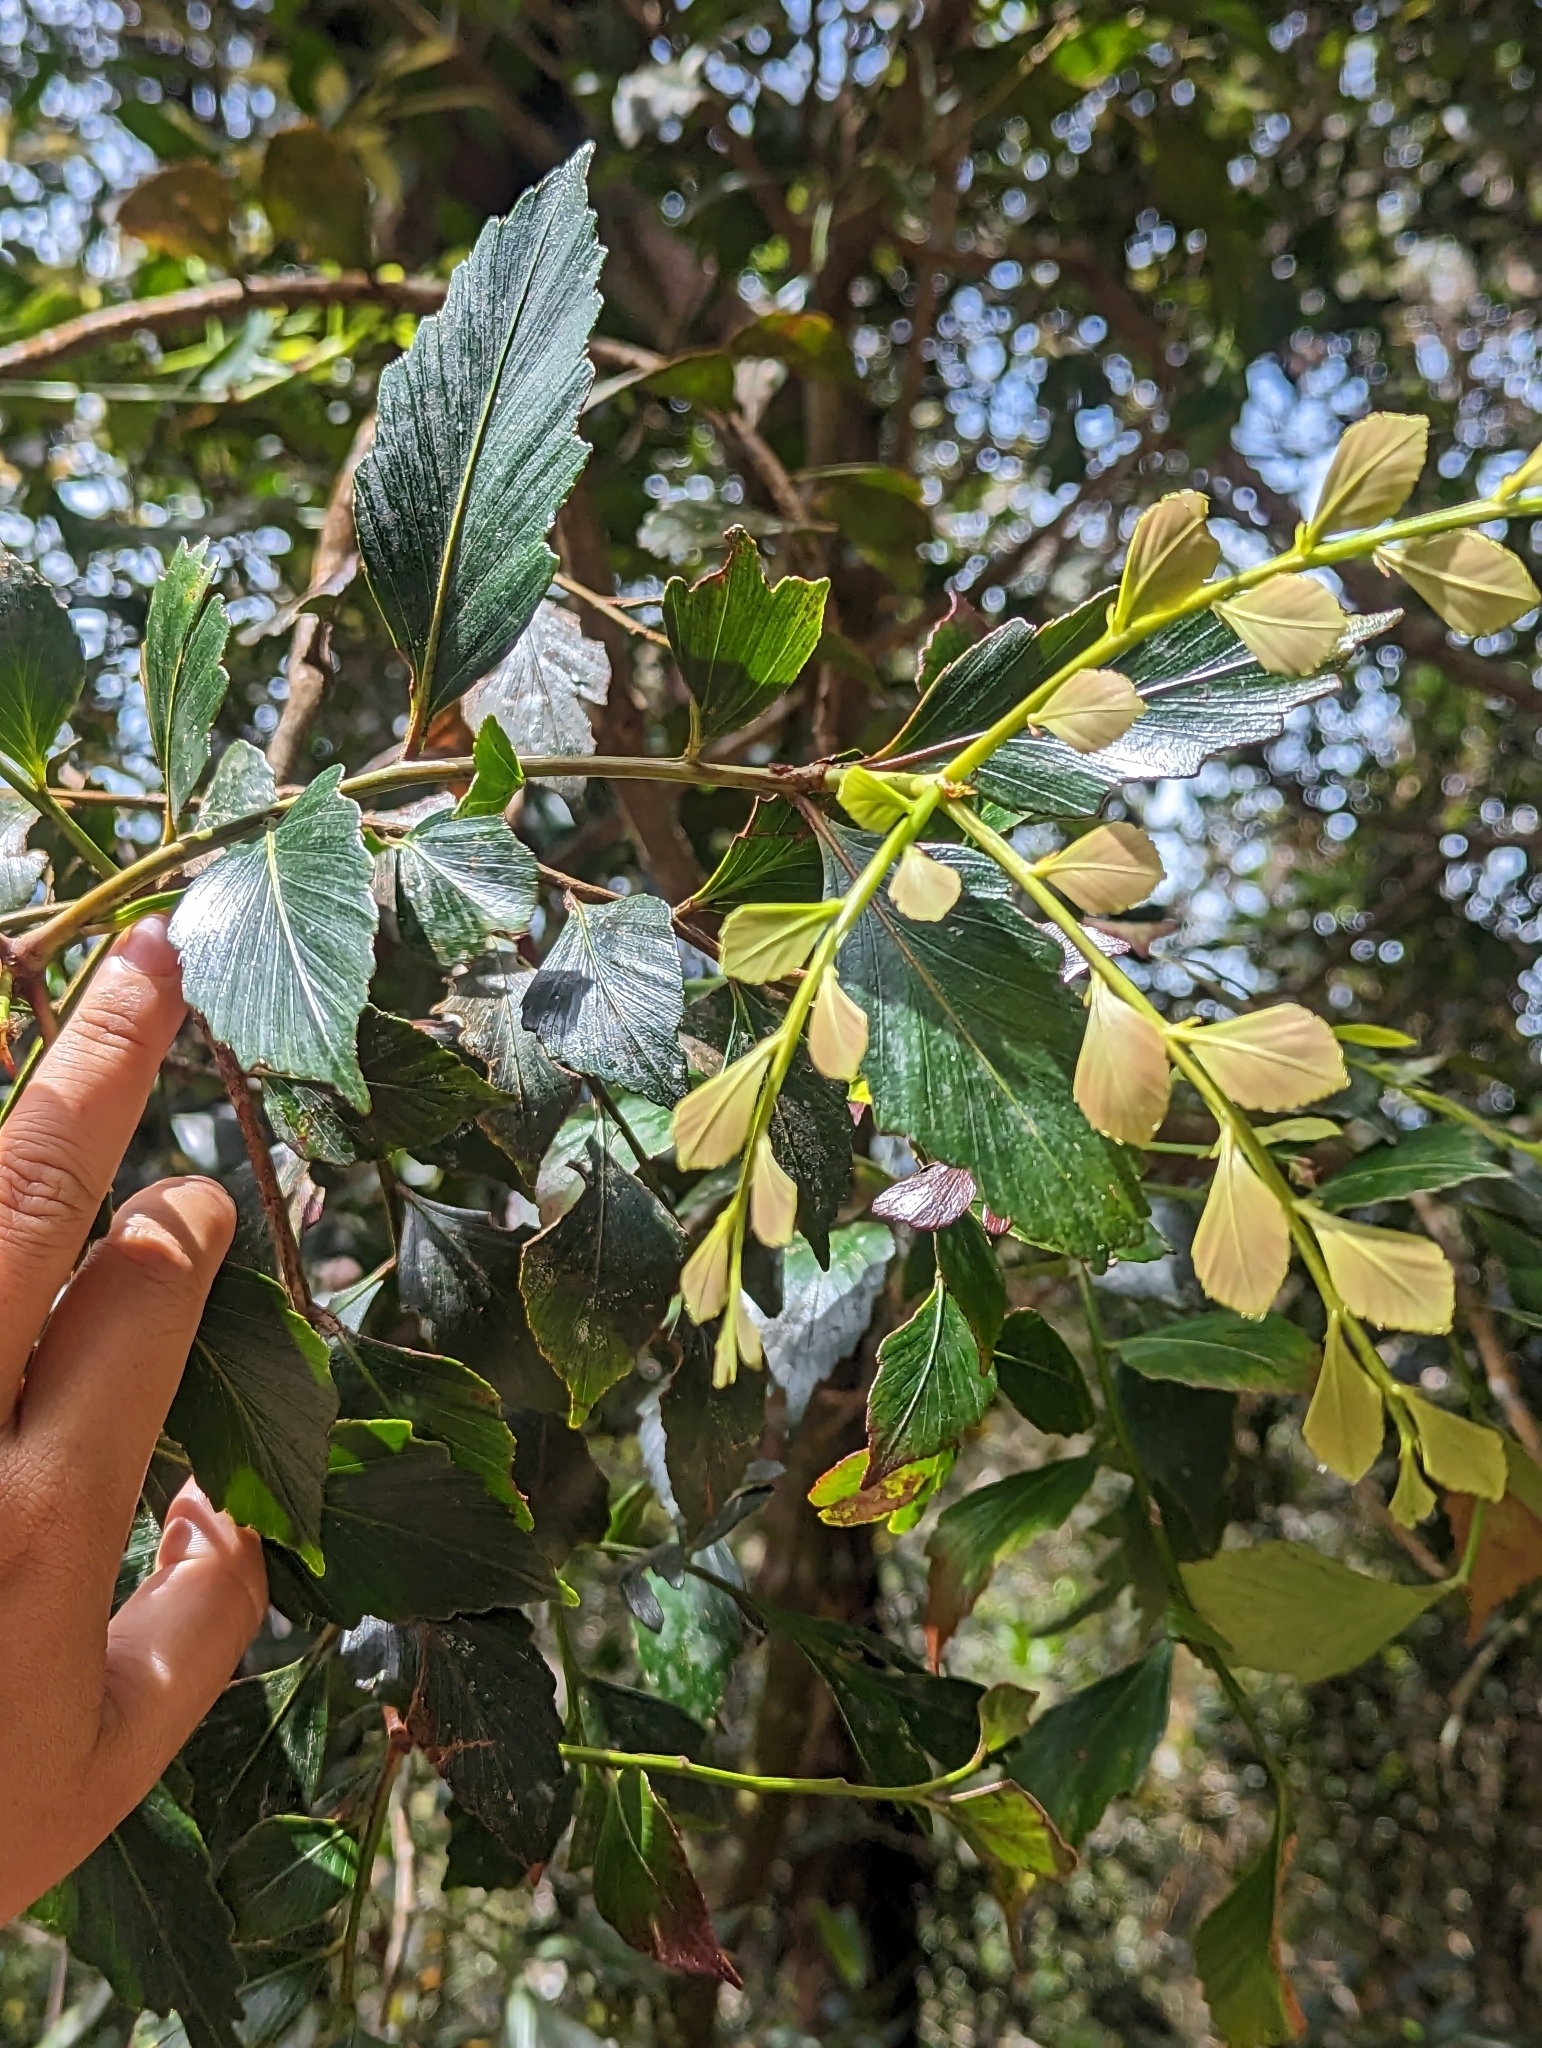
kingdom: Plantae
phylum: Tracheophyta
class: Pinopsida
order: Pinales
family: Phyllocladaceae
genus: Phyllocladus
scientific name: Phyllocladus hypophyllus
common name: Celery pine
